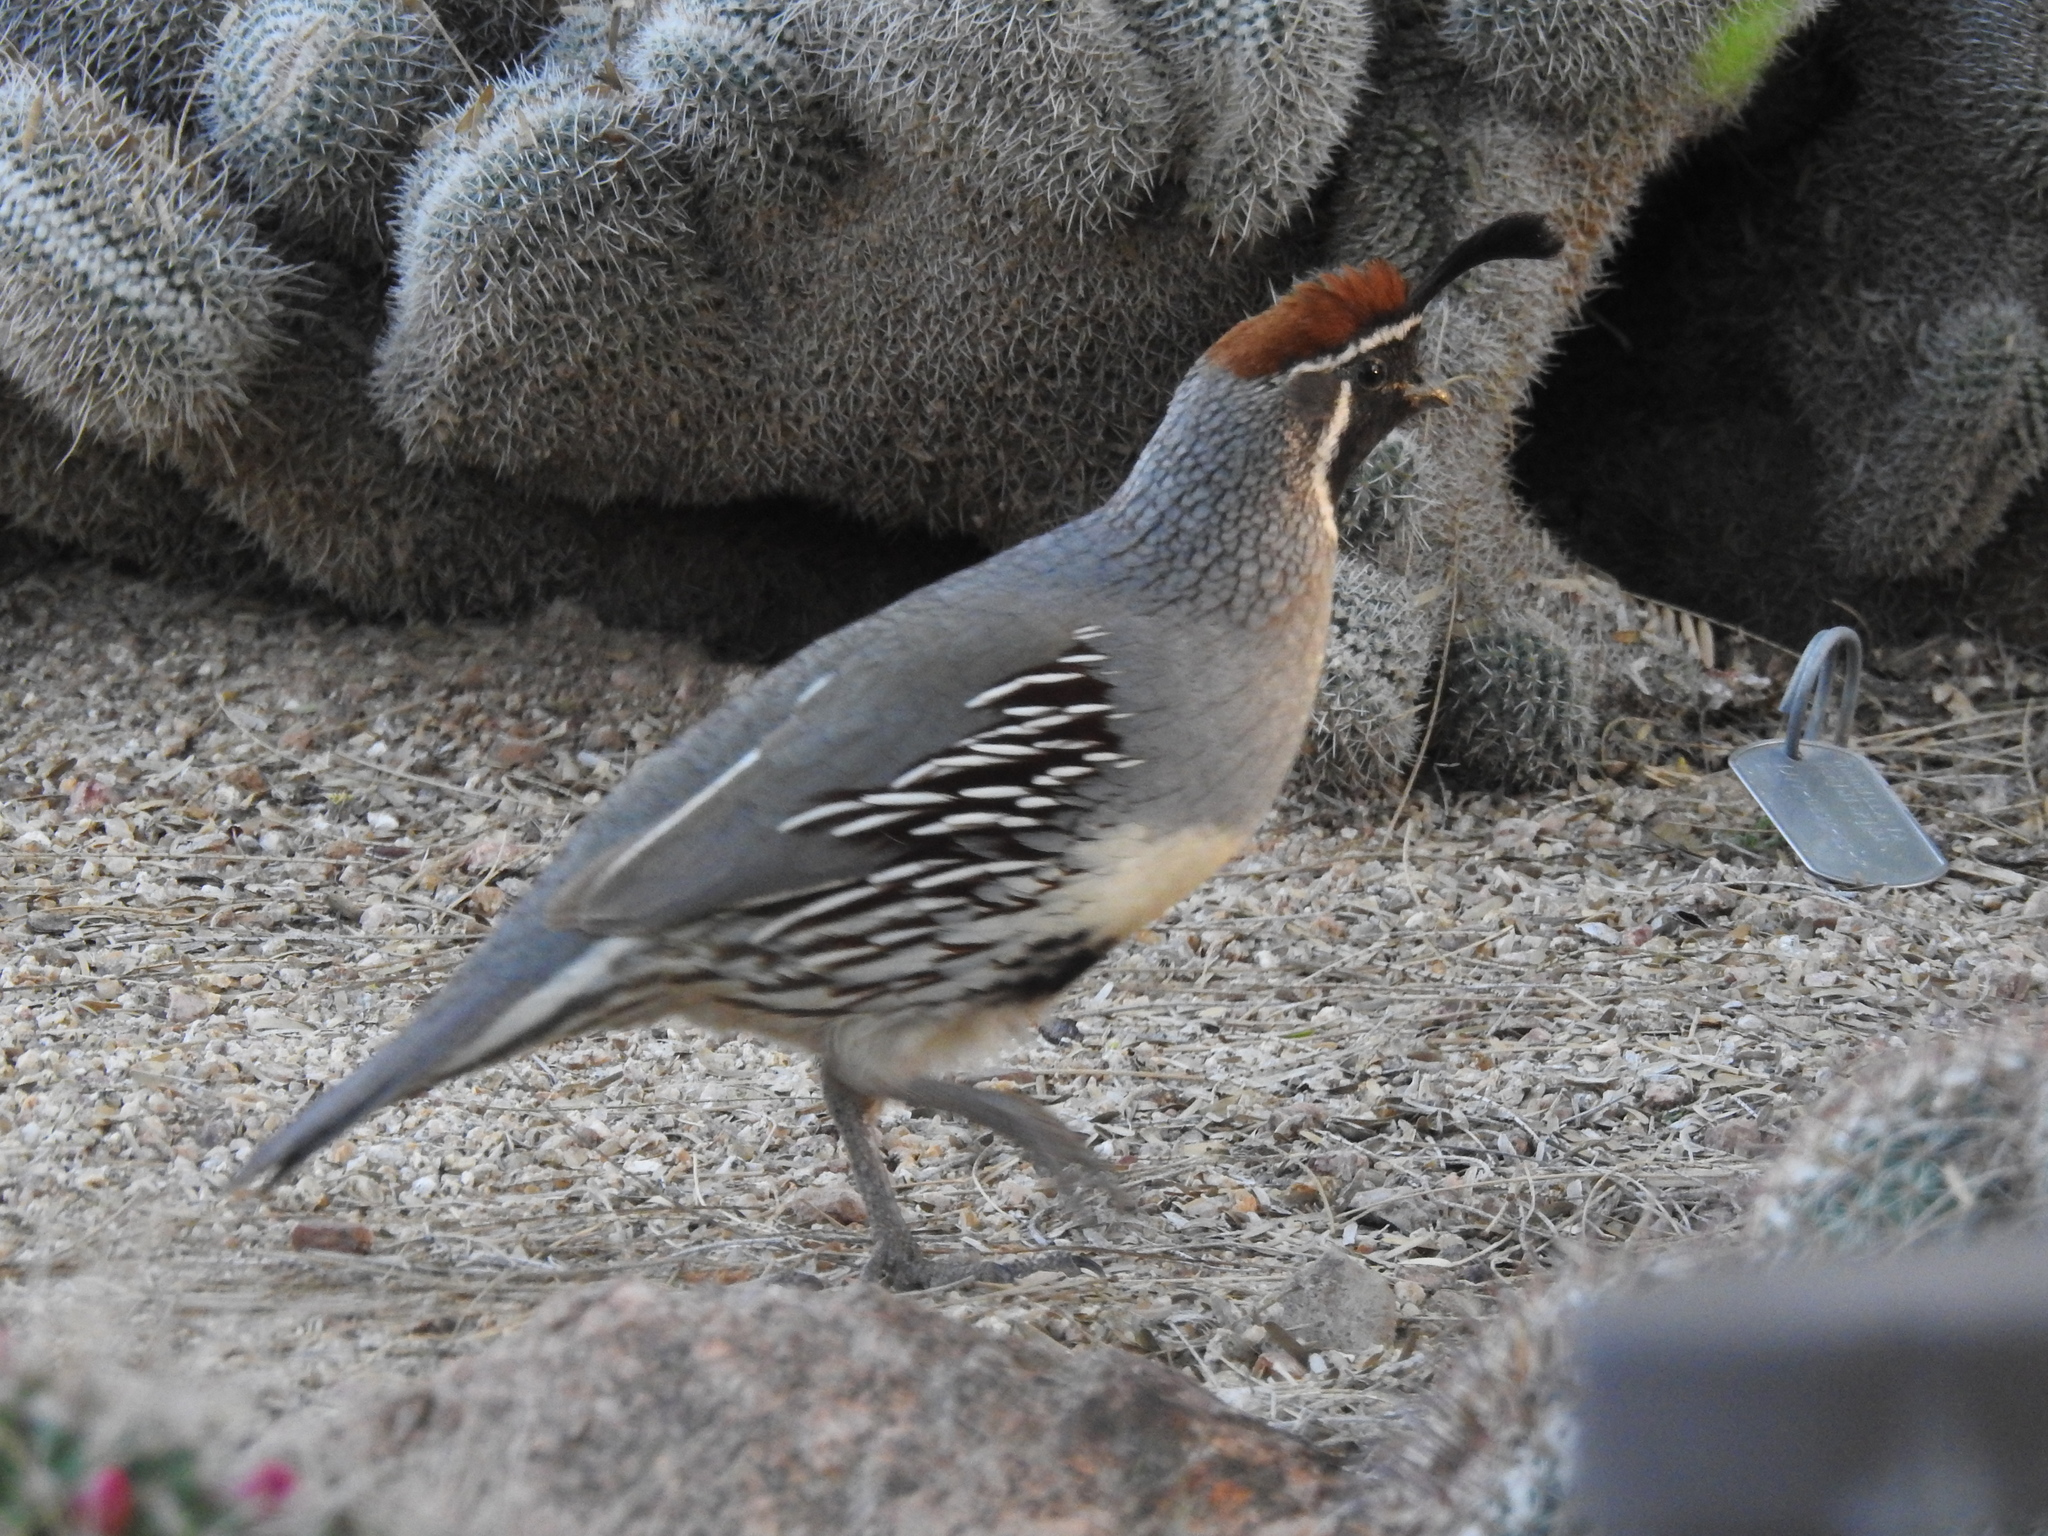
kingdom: Animalia
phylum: Chordata
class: Aves
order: Galliformes
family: Odontophoridae
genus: Callipepla
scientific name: Callipepla gambelii
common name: Gambel's quail
